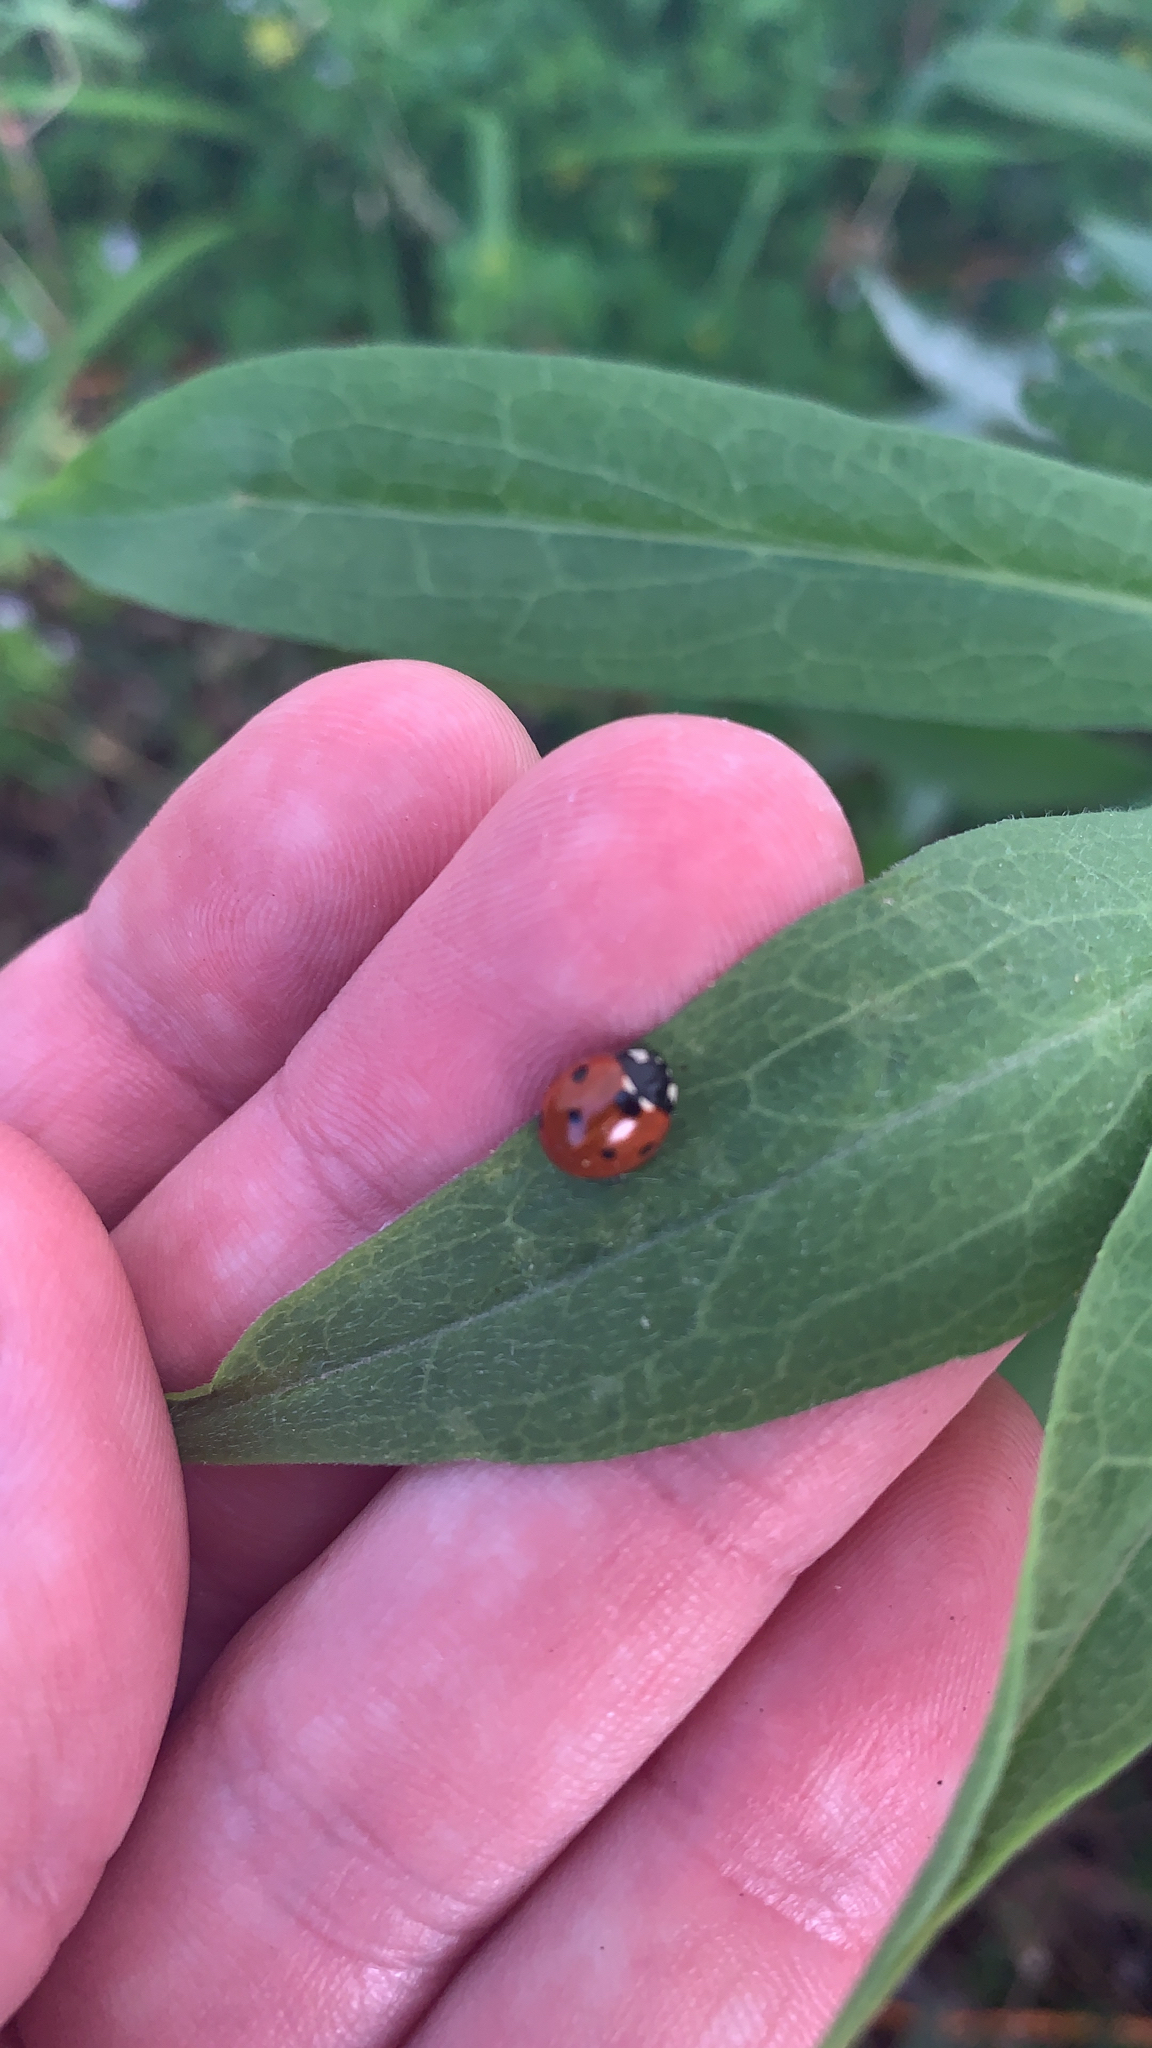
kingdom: Animalia
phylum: Arthropoda
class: Insecta
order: Coleoptera
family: Coccinellidae
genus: Coccinella
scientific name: Coccinella septempunctata
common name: Sevenspotted lady beetle
